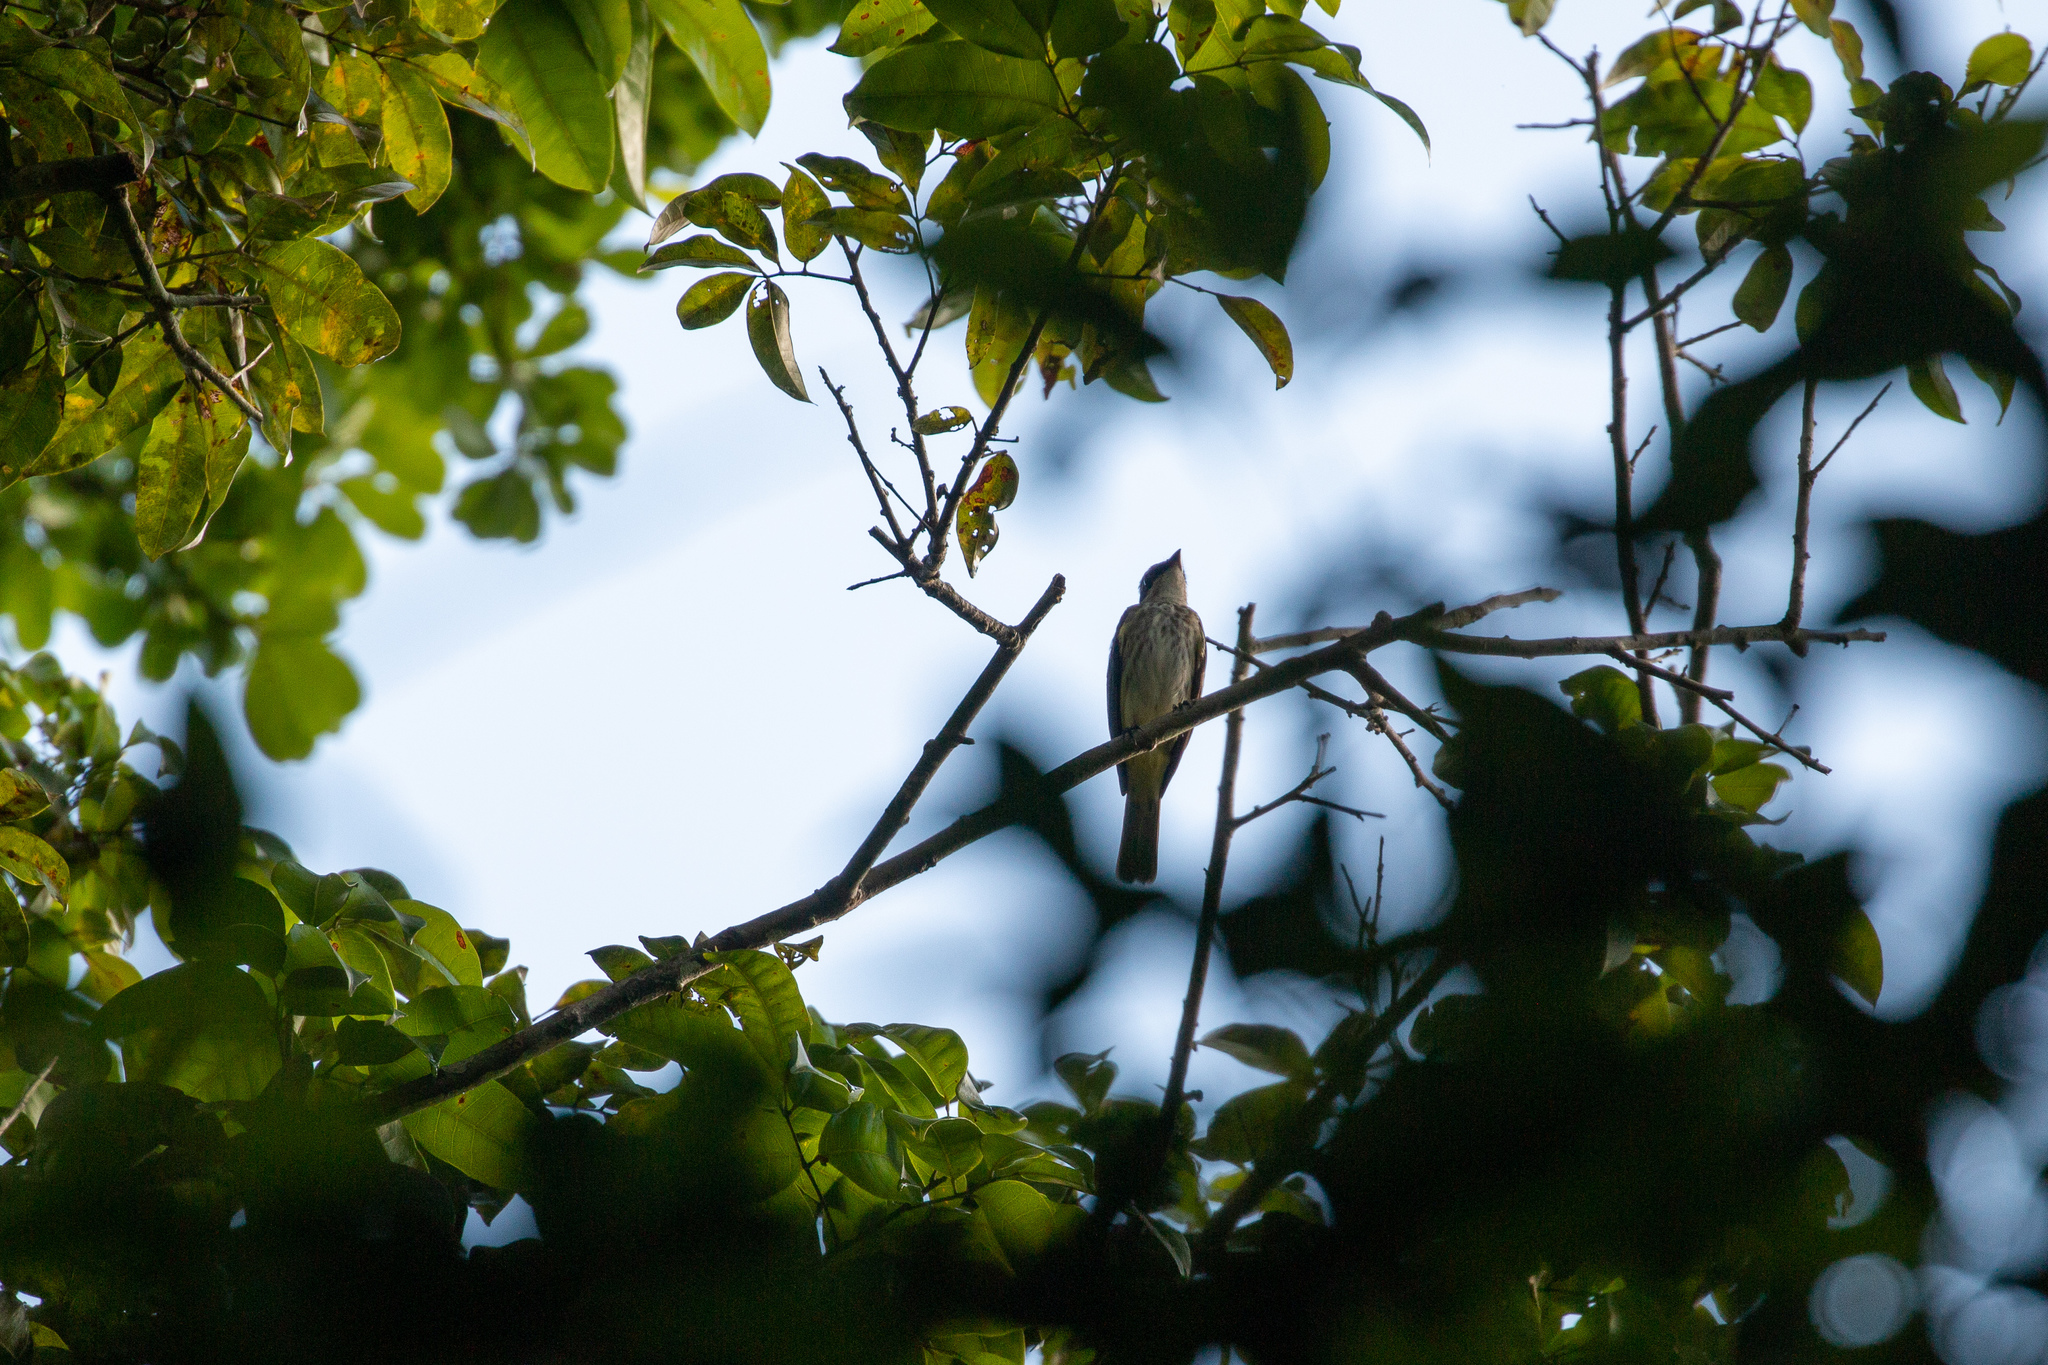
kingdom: Animalia
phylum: Chordata
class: Aves
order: Passeriformes
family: Tyrannidae
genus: Legatus
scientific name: Legatus leucophaius
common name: Piratic flycatcher
